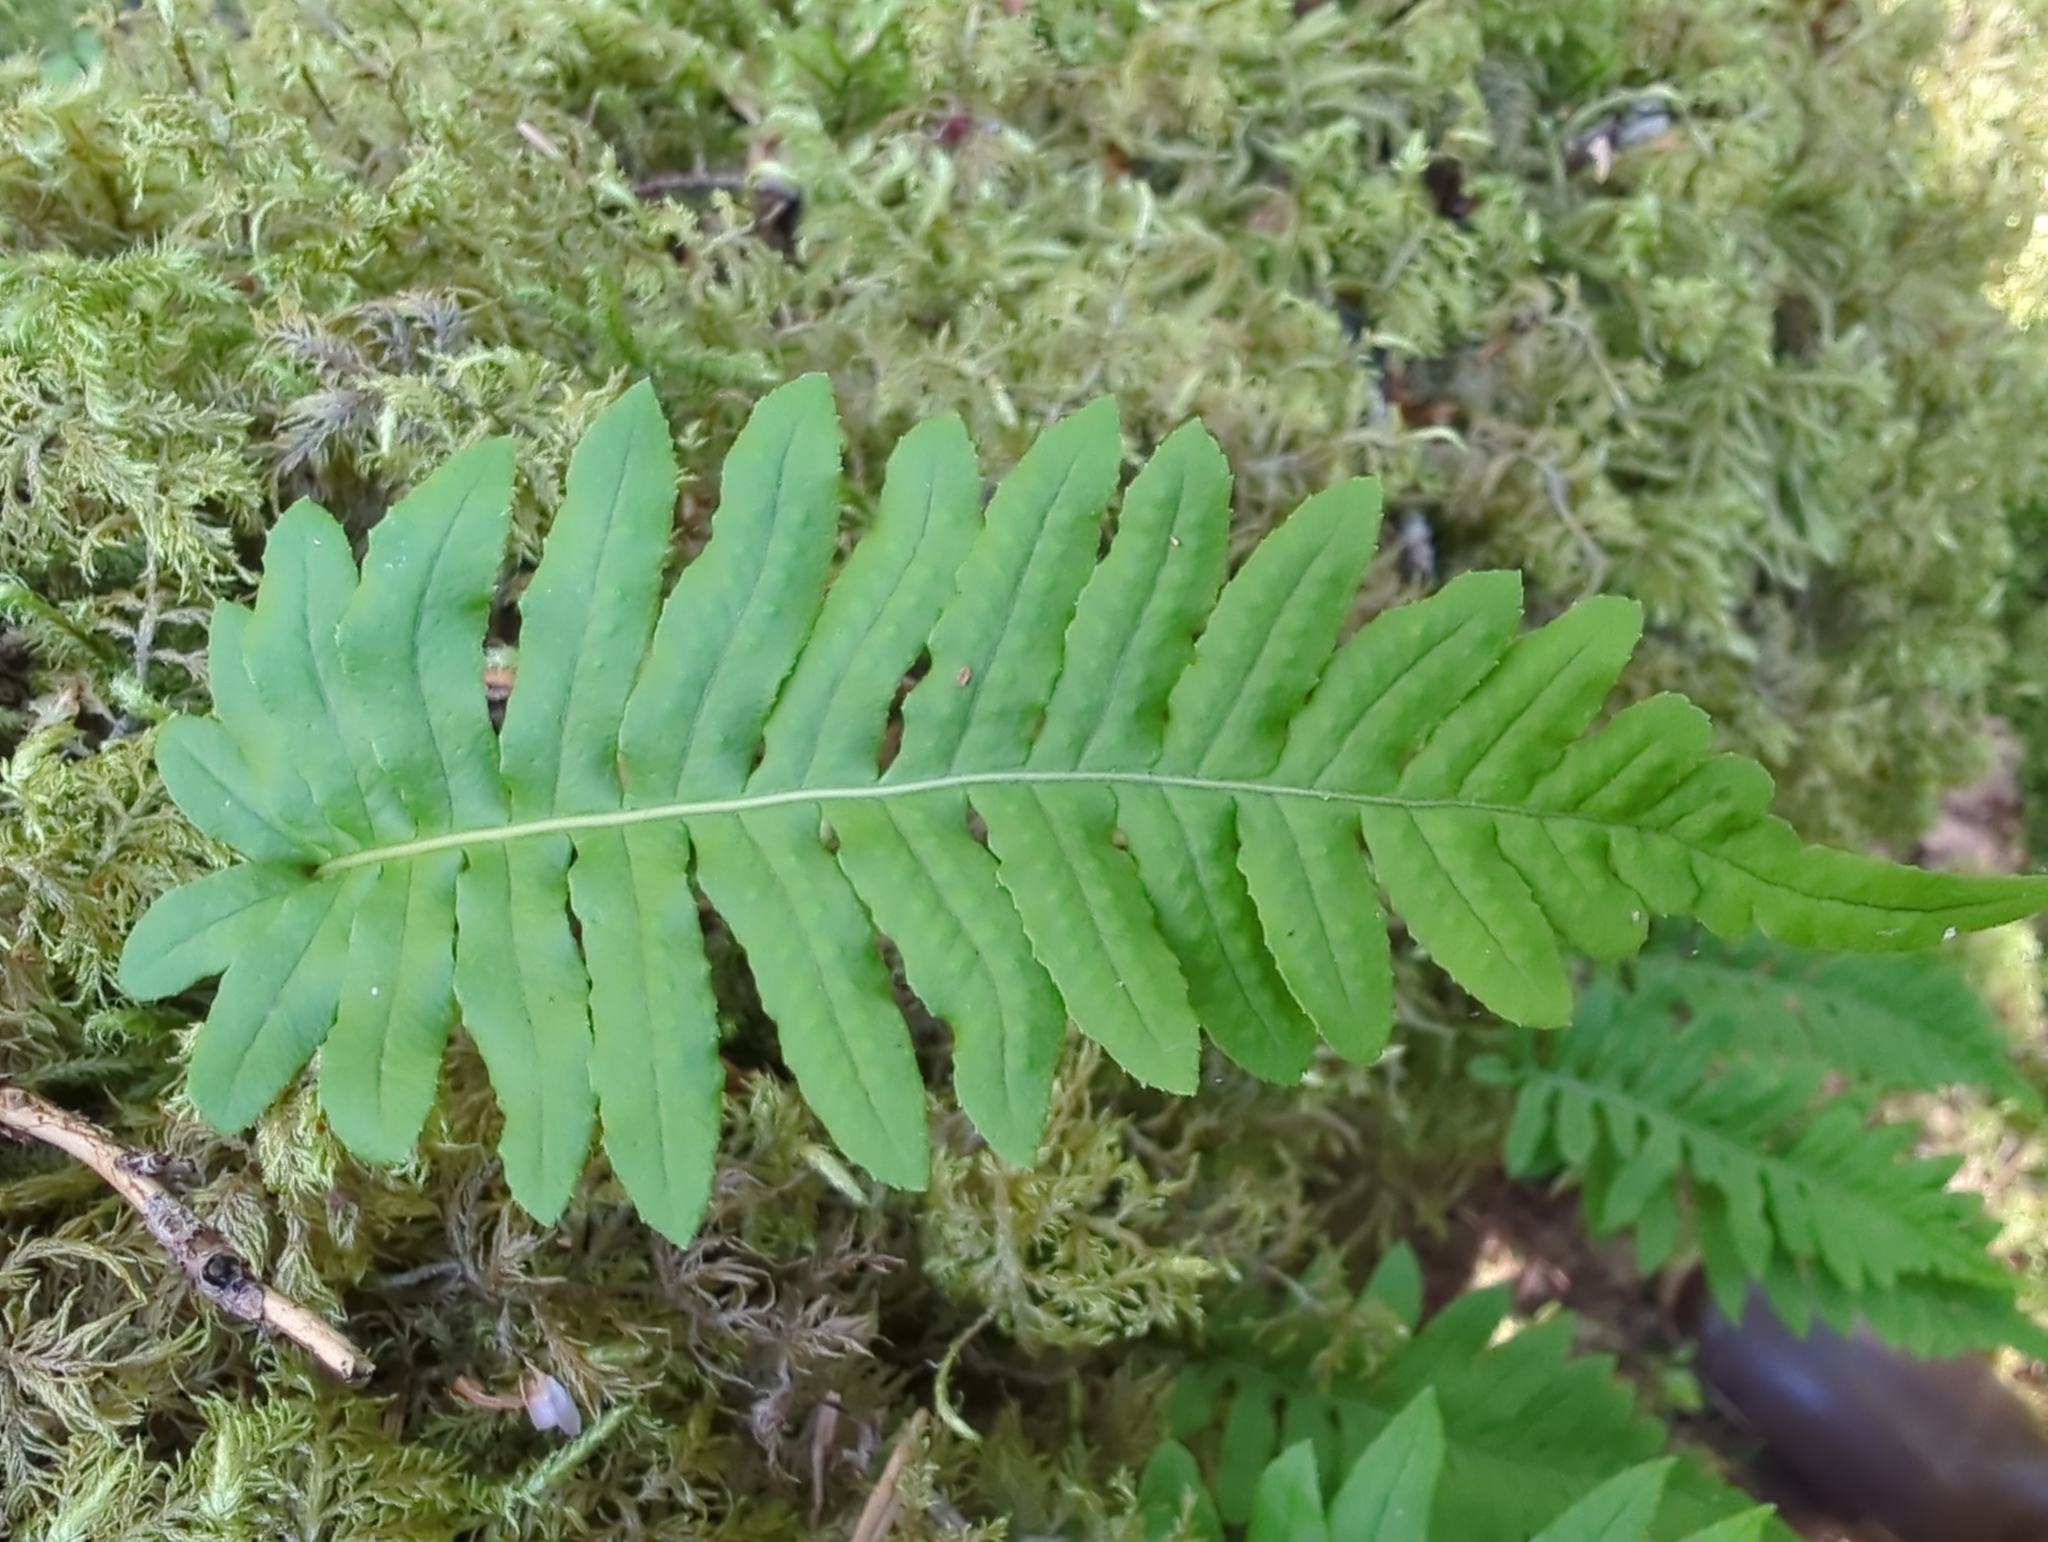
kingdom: Plantae
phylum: Tracheophyta
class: Polypodiopsida
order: Polypodiales
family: Polypodiaceae
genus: Polypodium
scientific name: Polypodium glycyrrhiza
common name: Licorice fern
